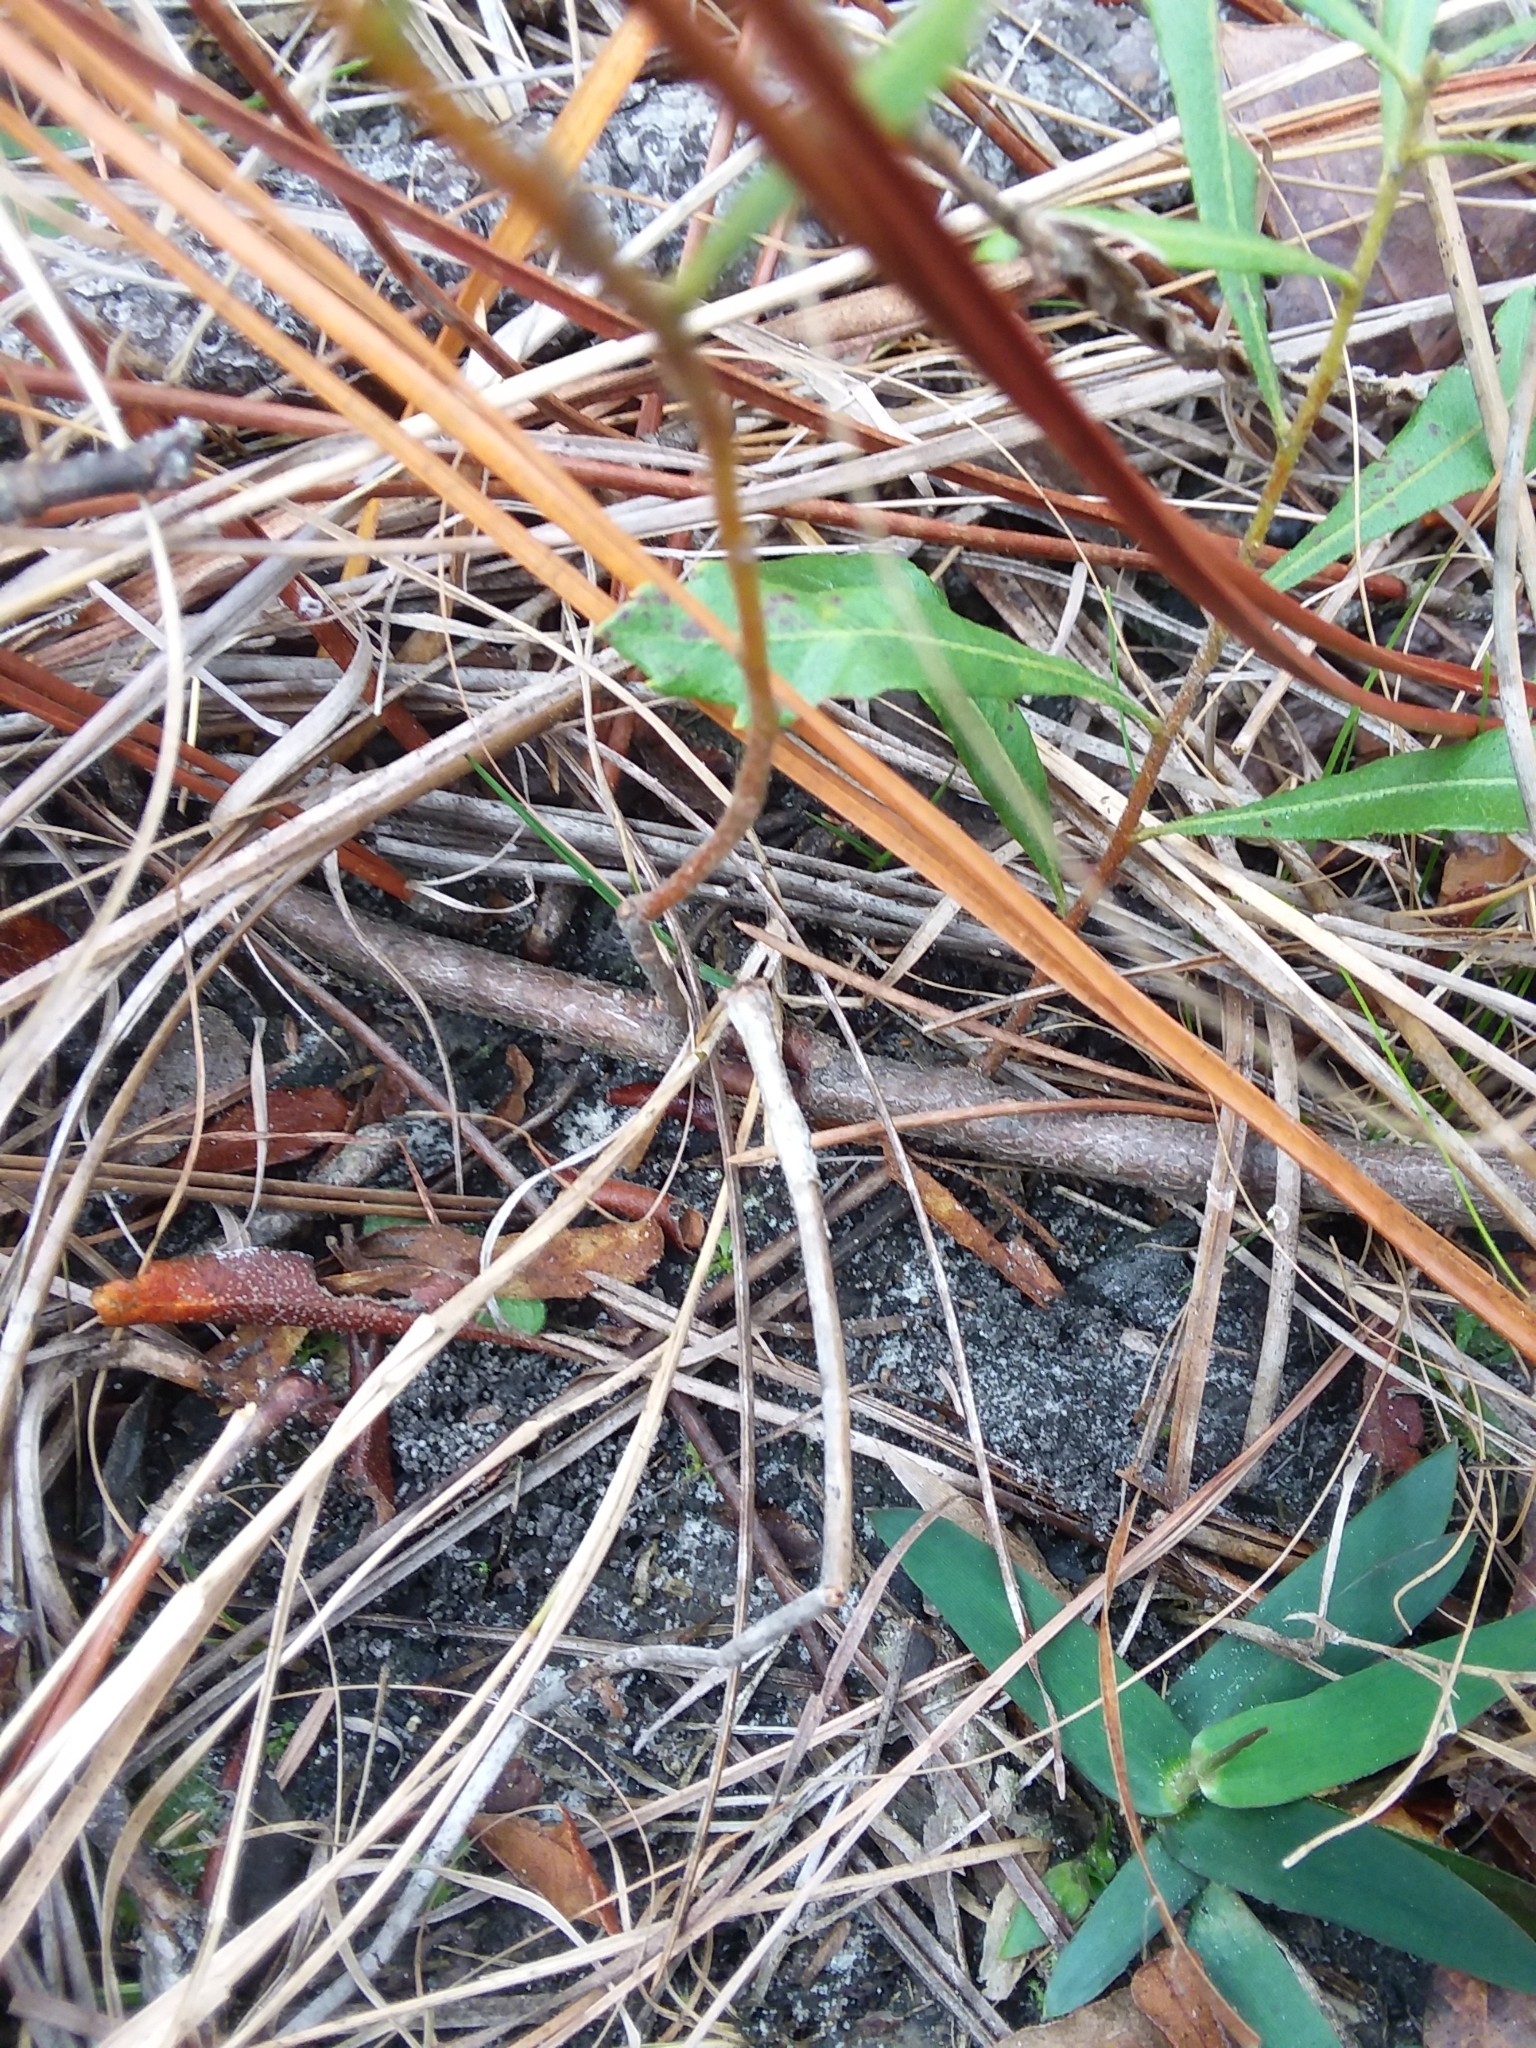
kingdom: Plantae
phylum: Tracheophyta
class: Magnoliopsida
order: Fagales
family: Myricaceae
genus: Morella
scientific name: Morella cerifera
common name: Wax myrtle
